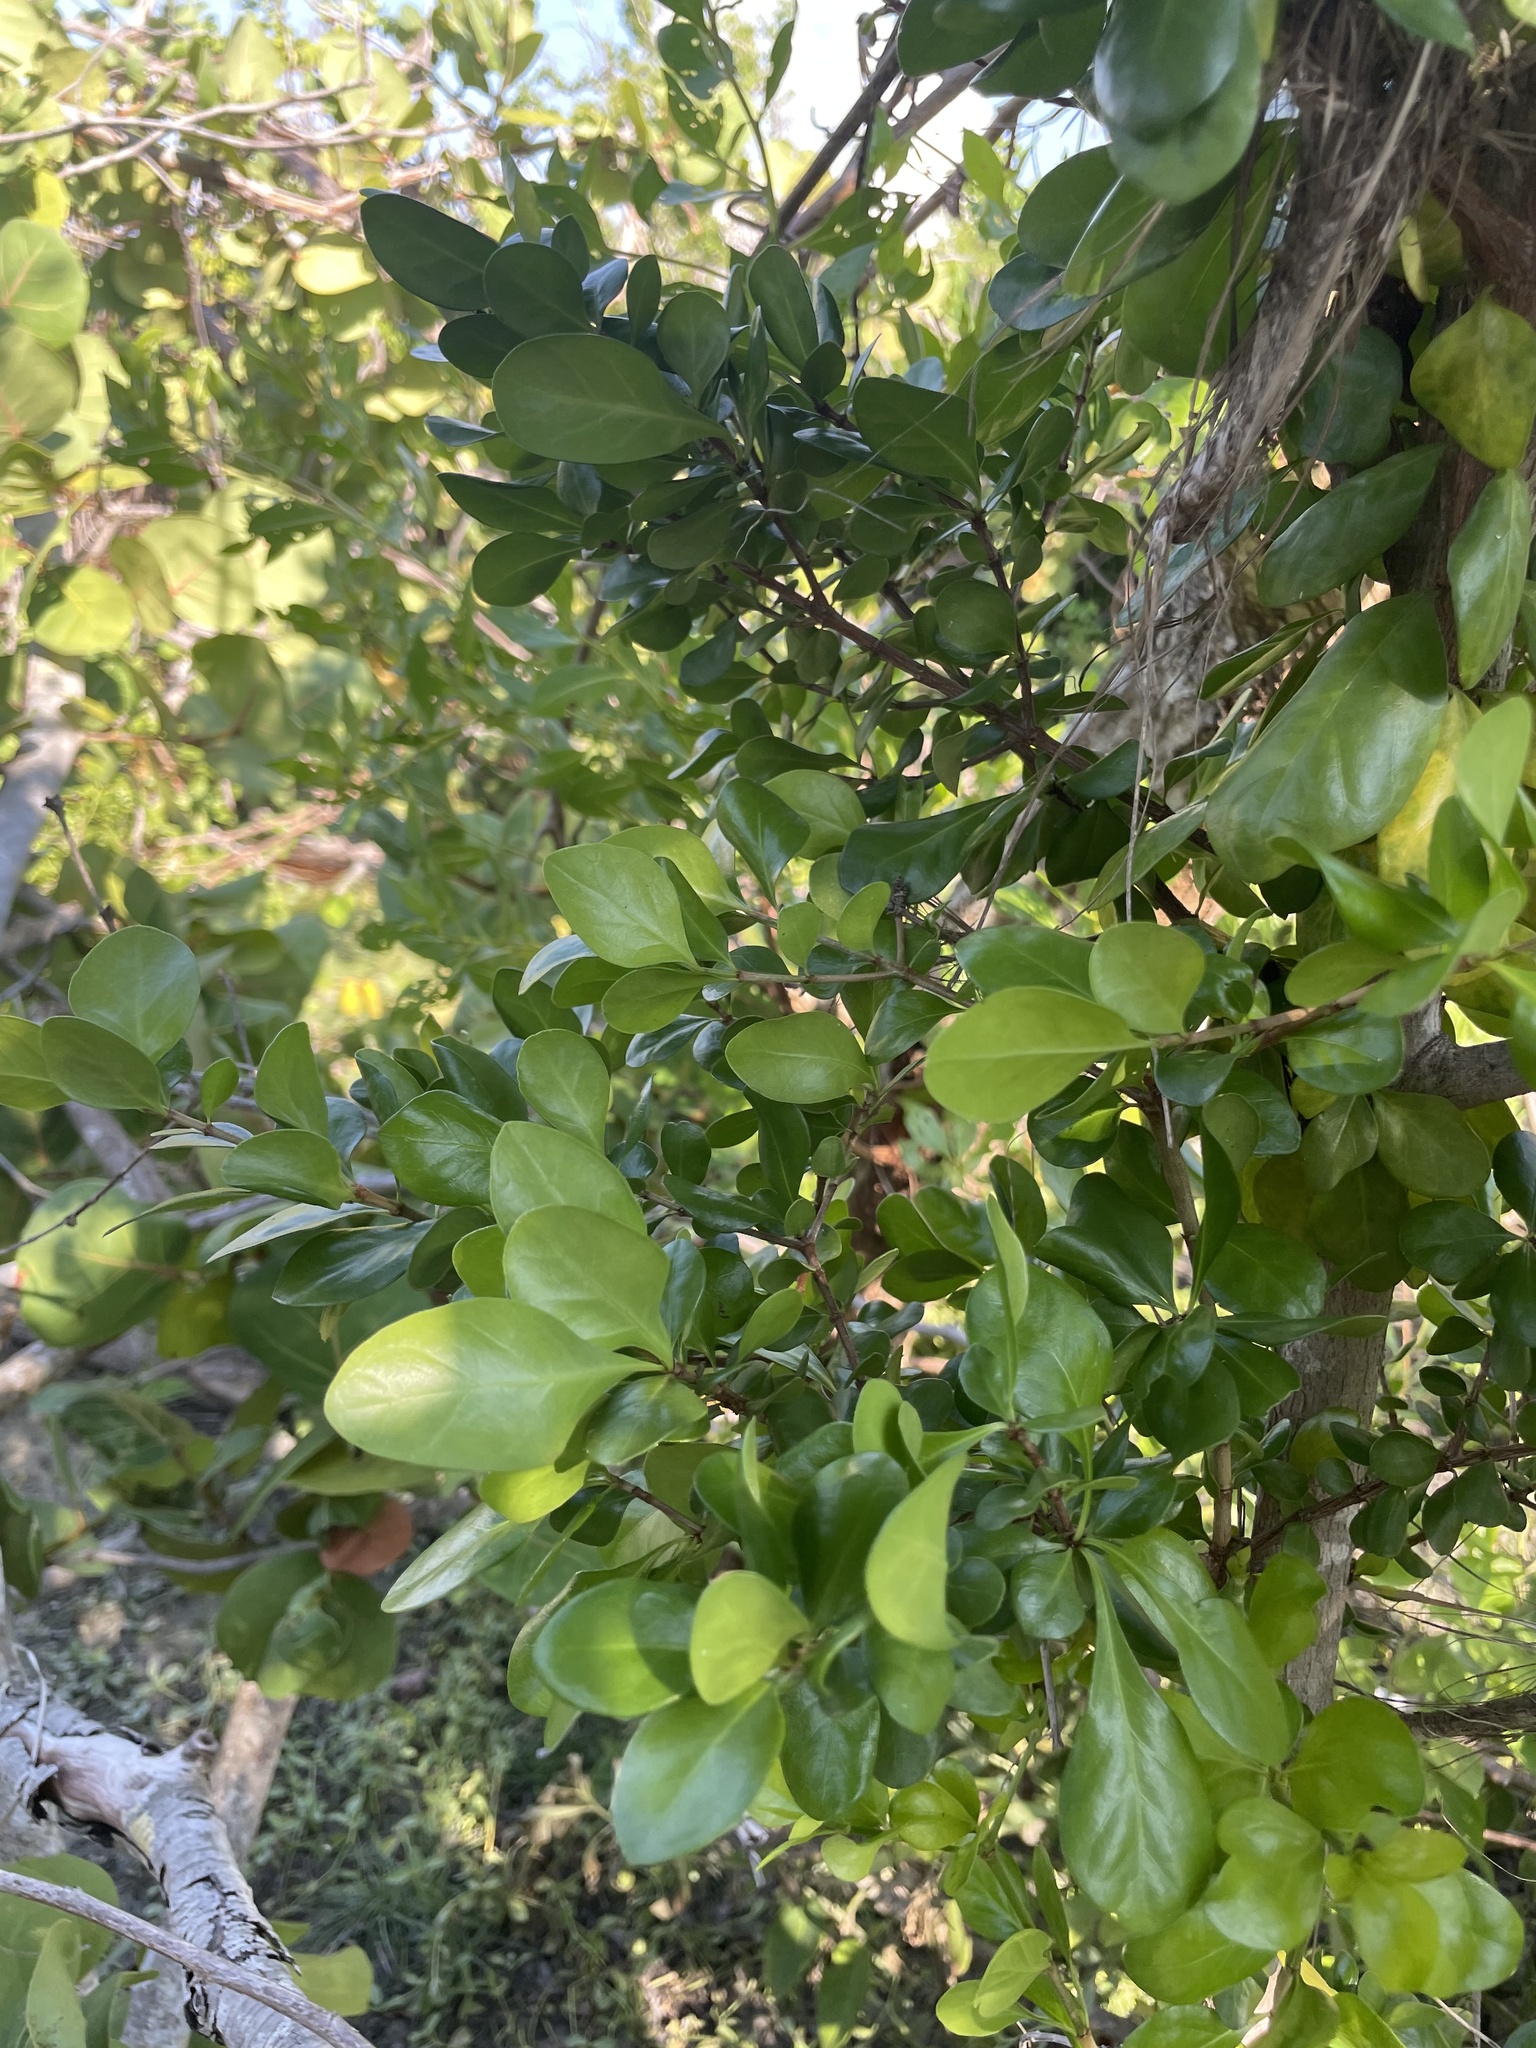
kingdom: Plantae
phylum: Tracheophyta
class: Magnoliopsida
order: Gentianales
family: Rubiaceae
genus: Randia
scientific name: Randia aculeata
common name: Inkberry
